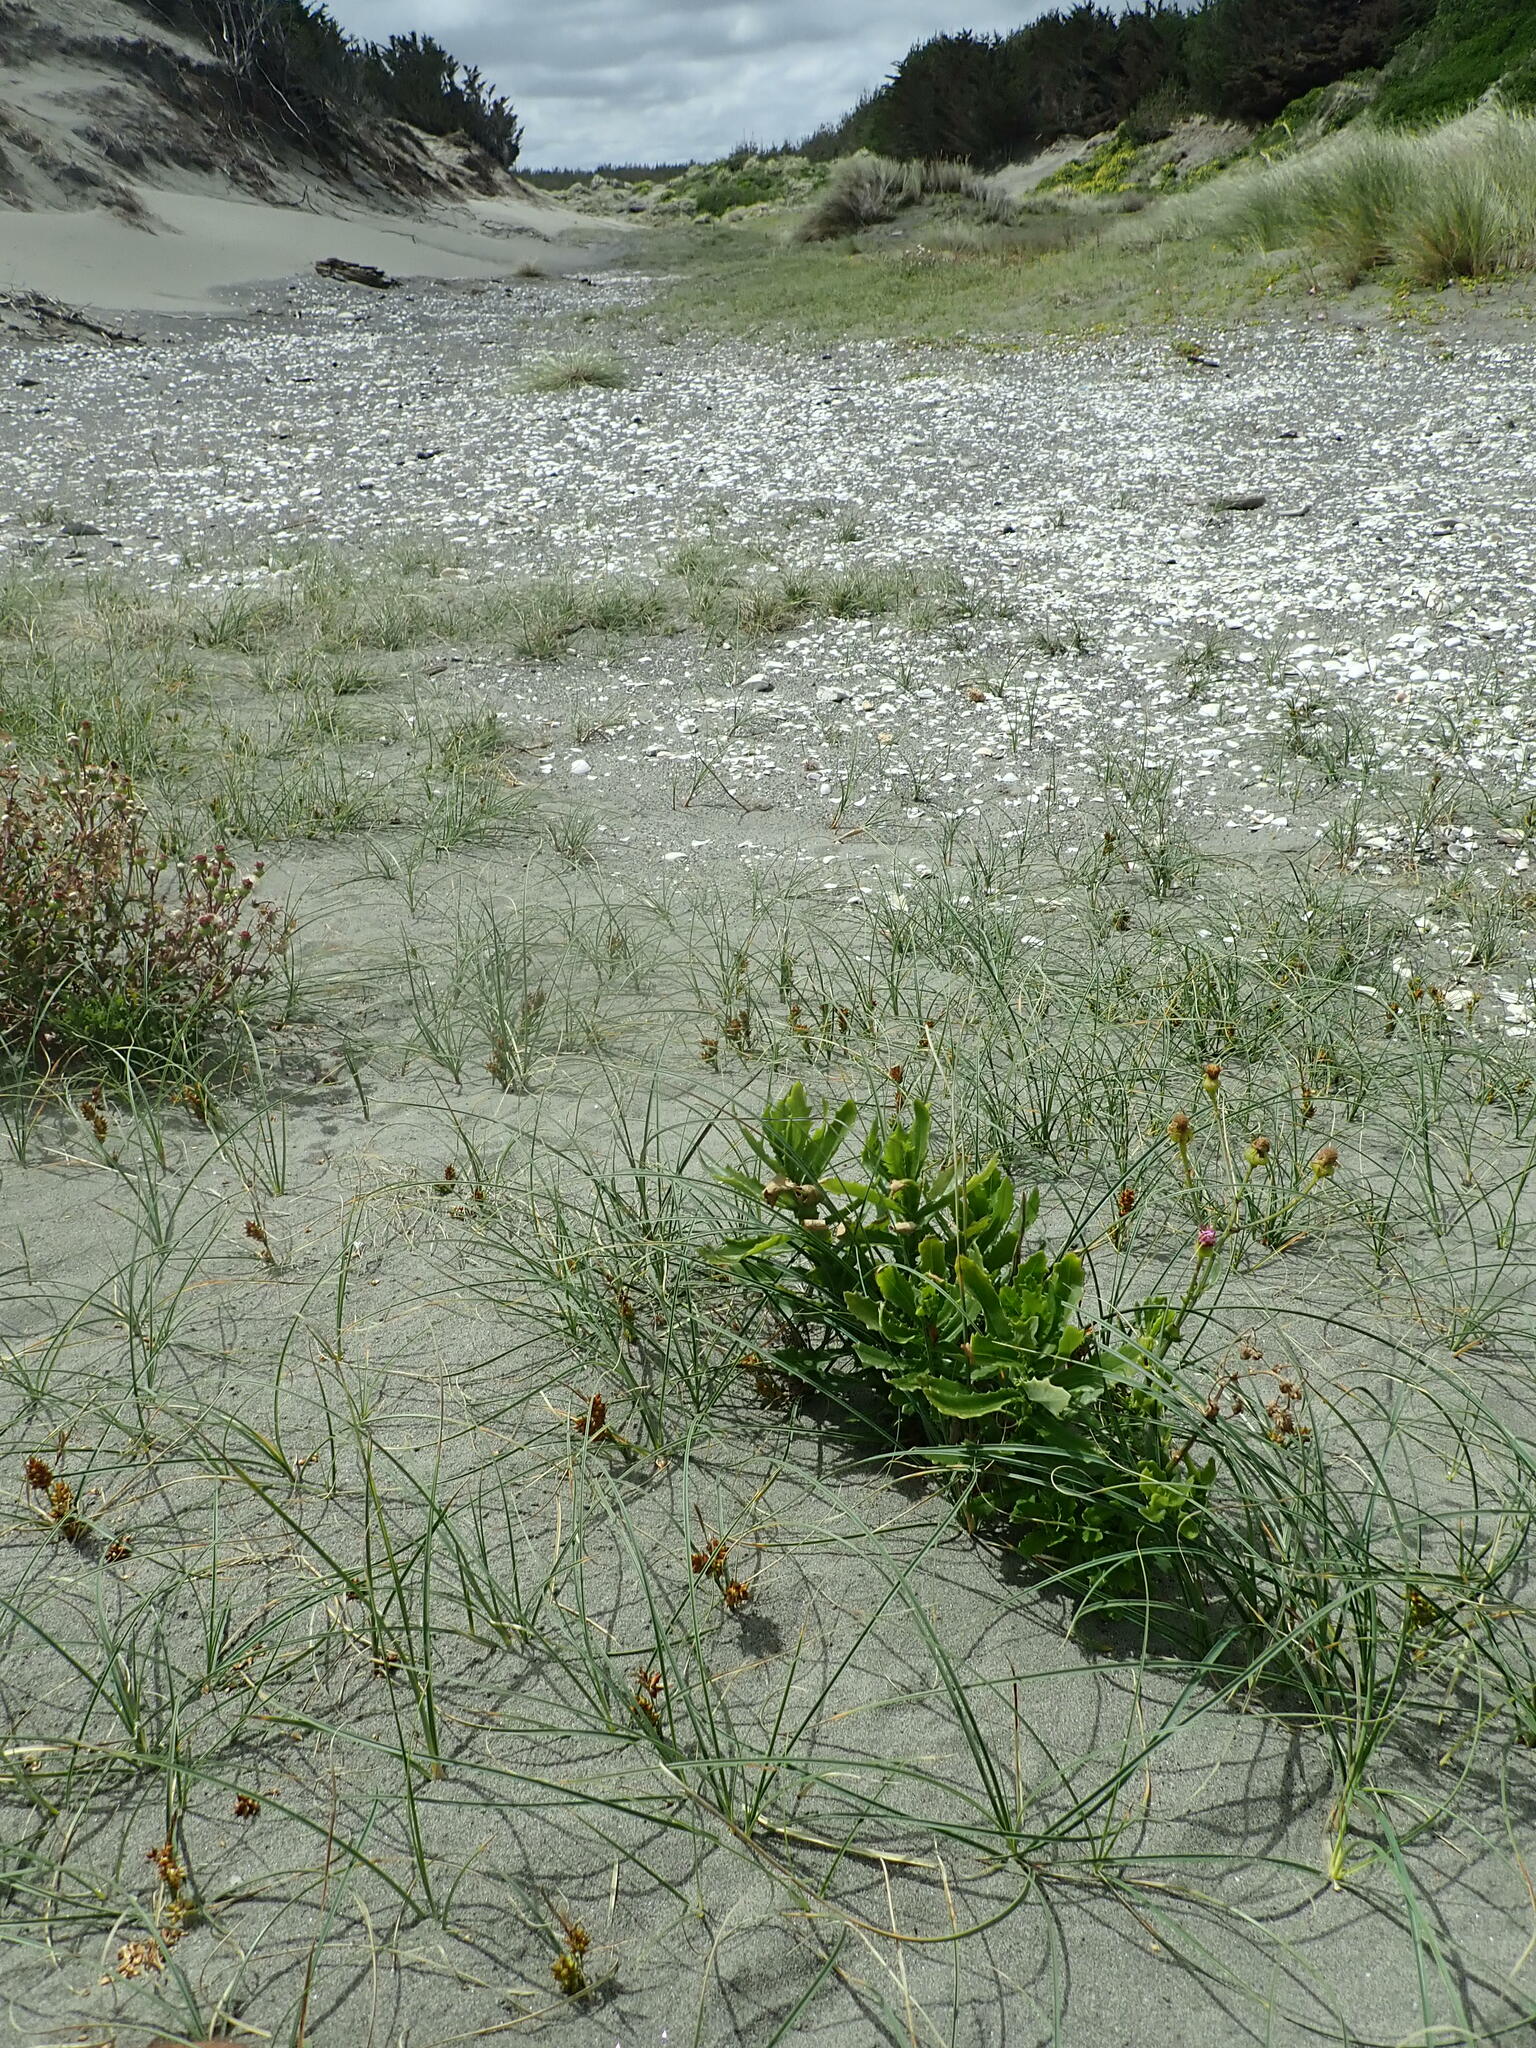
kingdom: Plantae
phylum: Tracheophyta
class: Magnoliopsida
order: Asterales
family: Asteraceae
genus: Senecio
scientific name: Senecio glastifolius
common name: Woad-leaved ragwort
